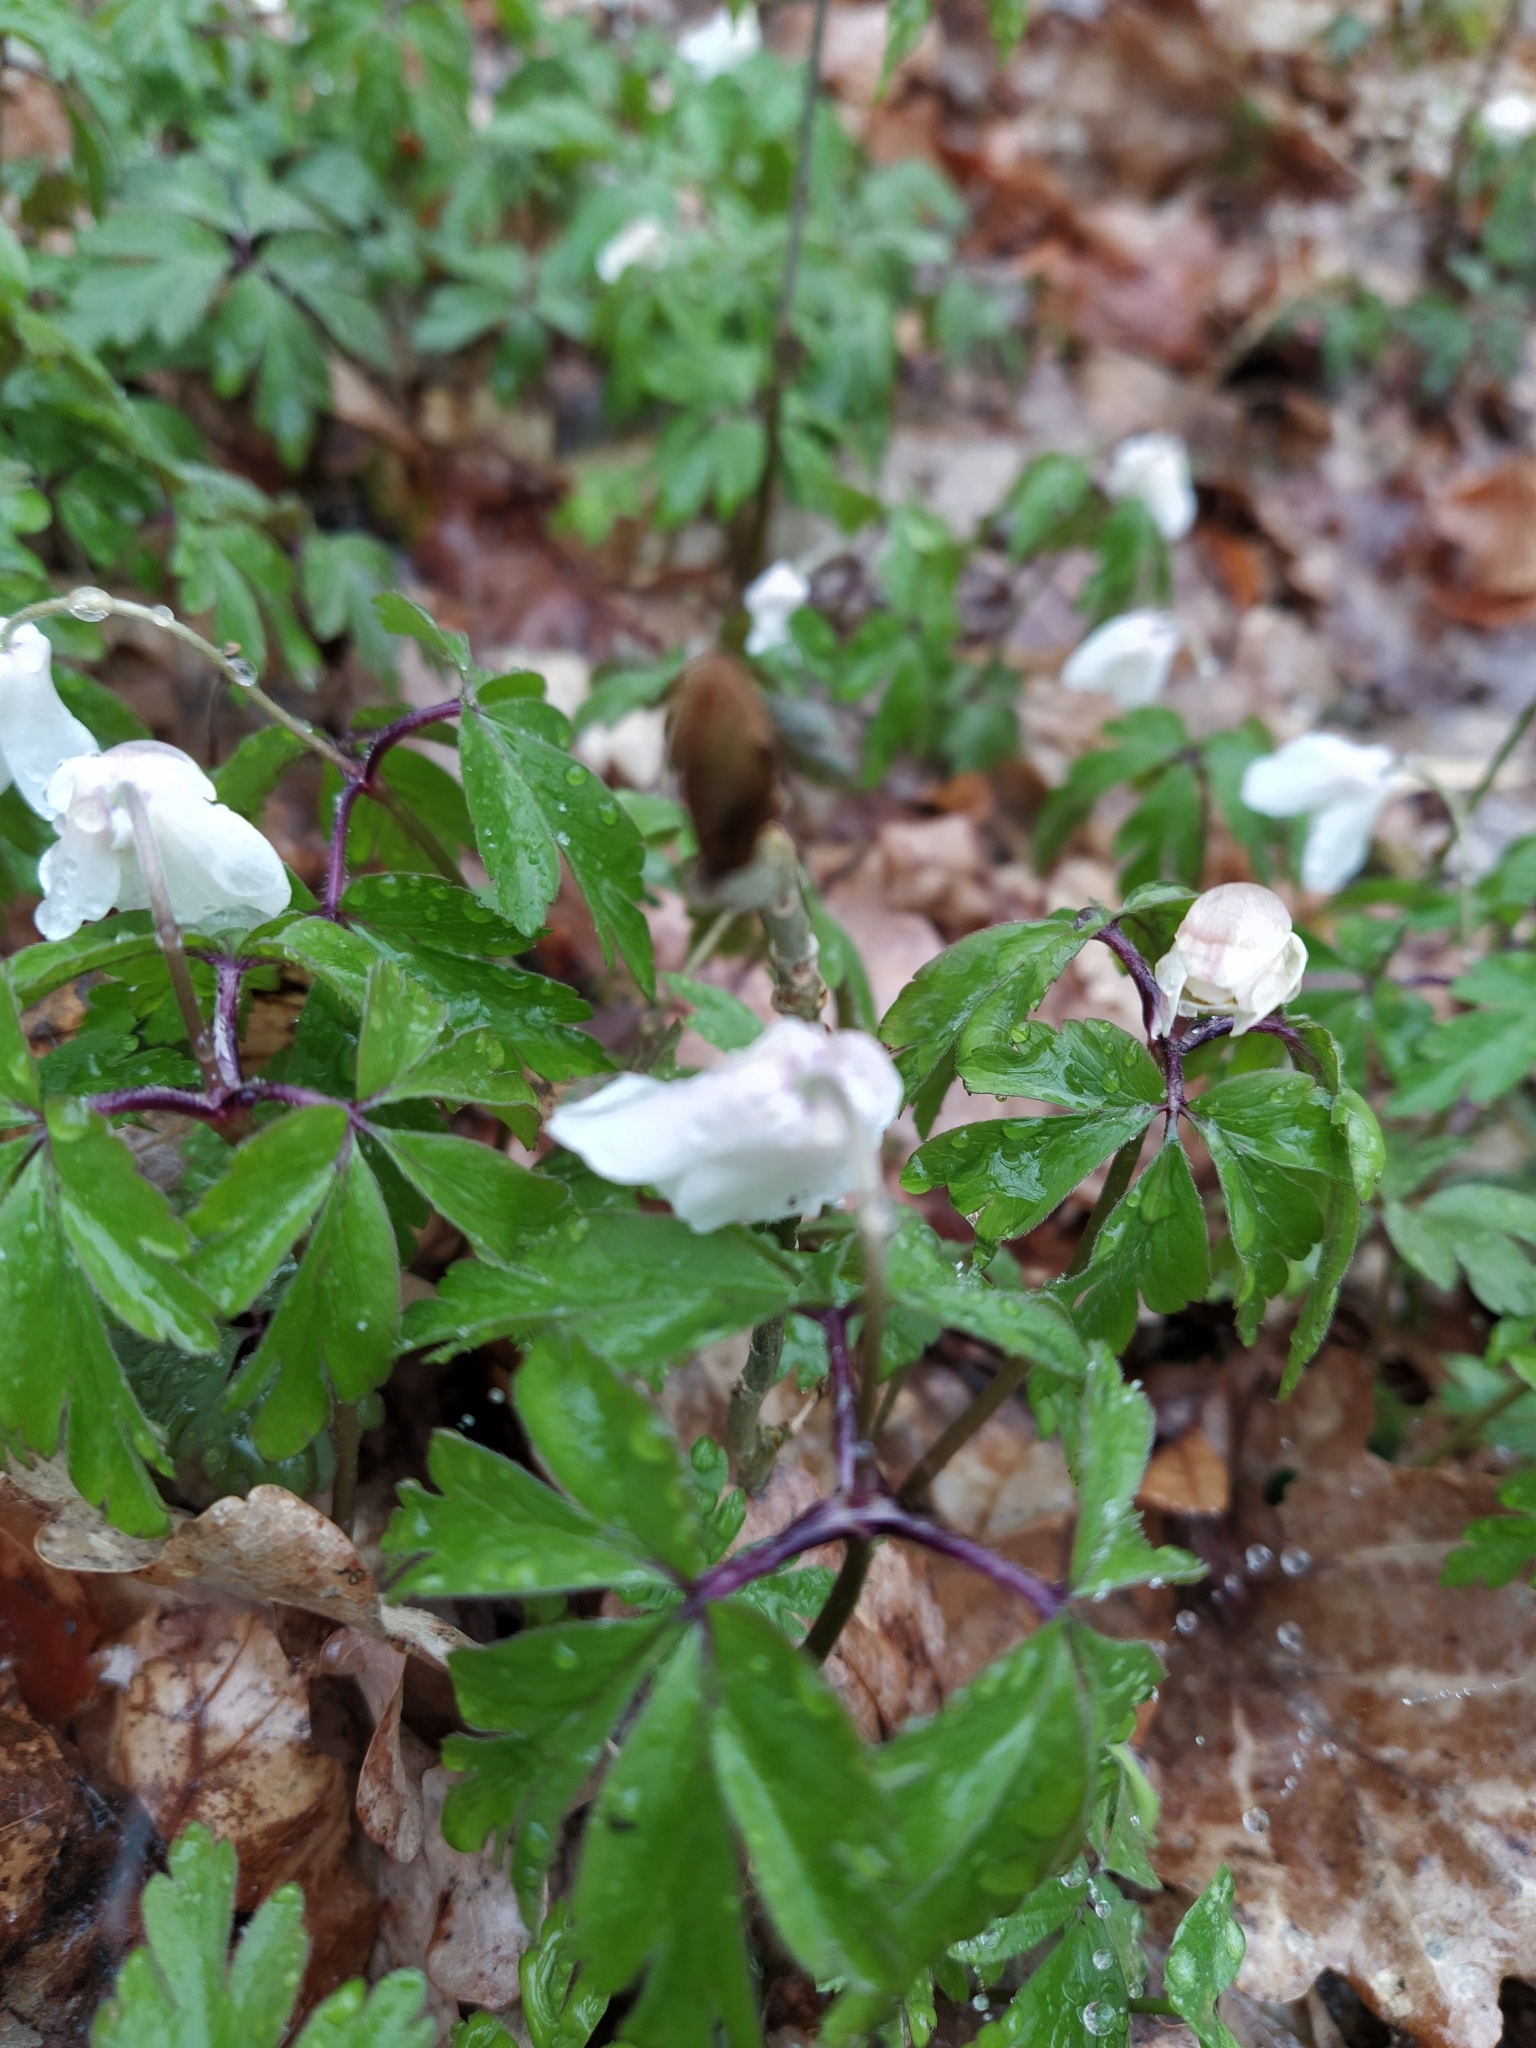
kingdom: Plantae
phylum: Tracheophyta
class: Magnoliopsida
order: Ranunculales
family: Ranunculaceae
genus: Anemone
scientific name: Anemone nemorosa
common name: Wood anemone
